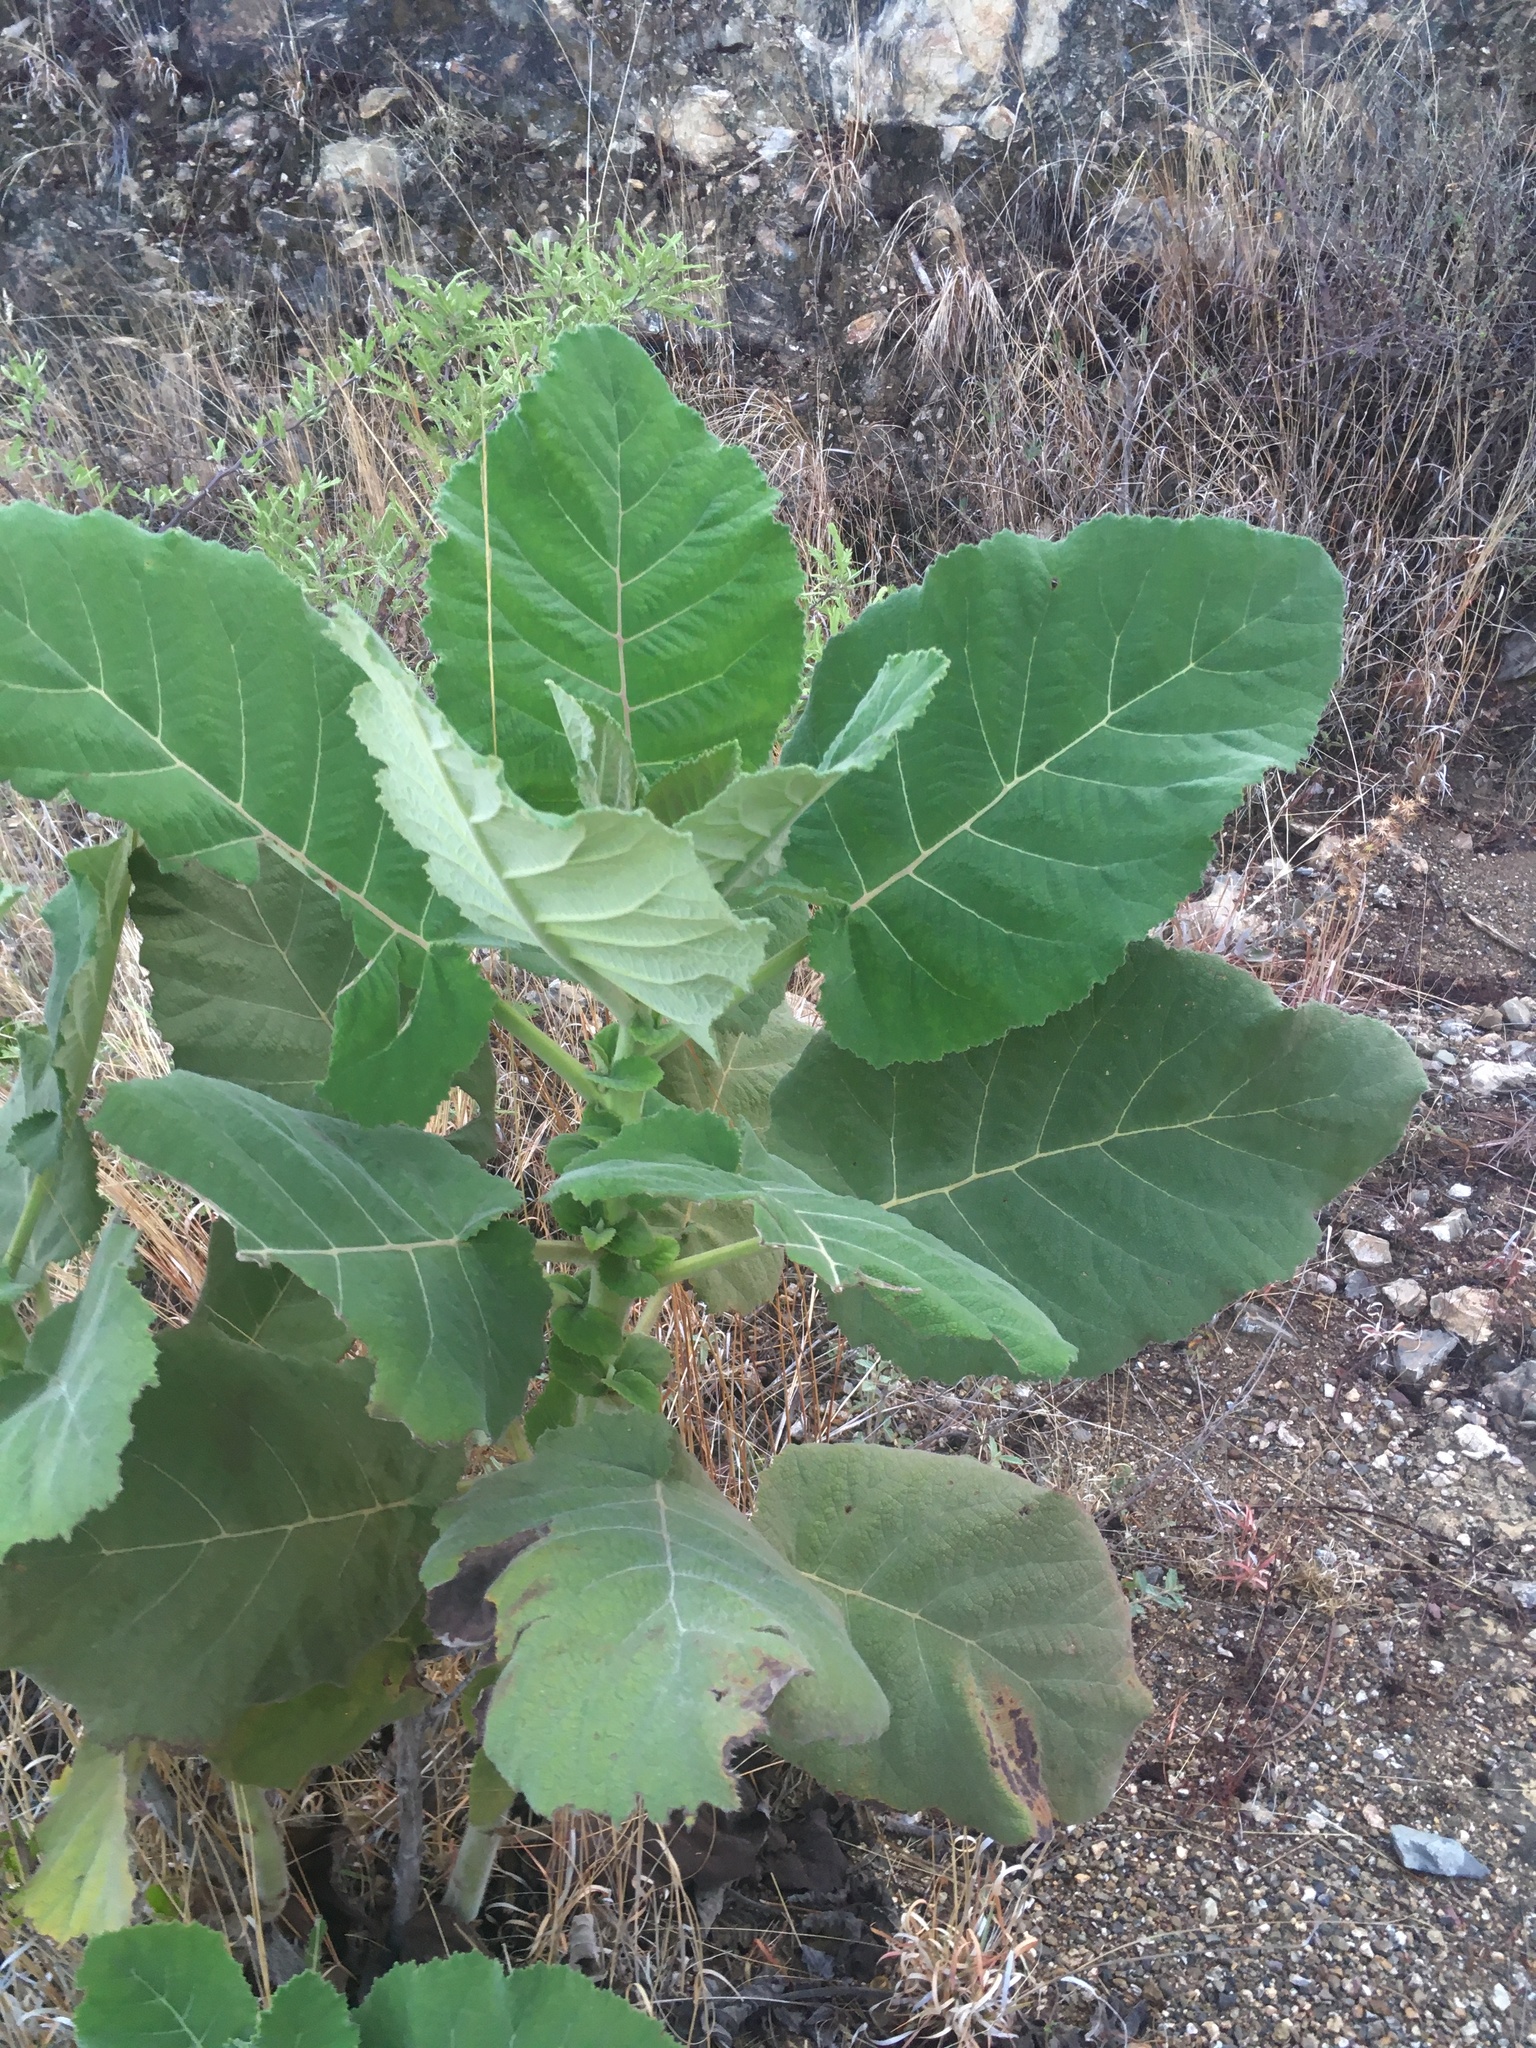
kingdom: Plantae
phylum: Tracheophyta
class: Magnoliopsida
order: Boraginales
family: Namaceae
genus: Wigandia
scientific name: Wigandia urens
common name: Caracus wigandia
